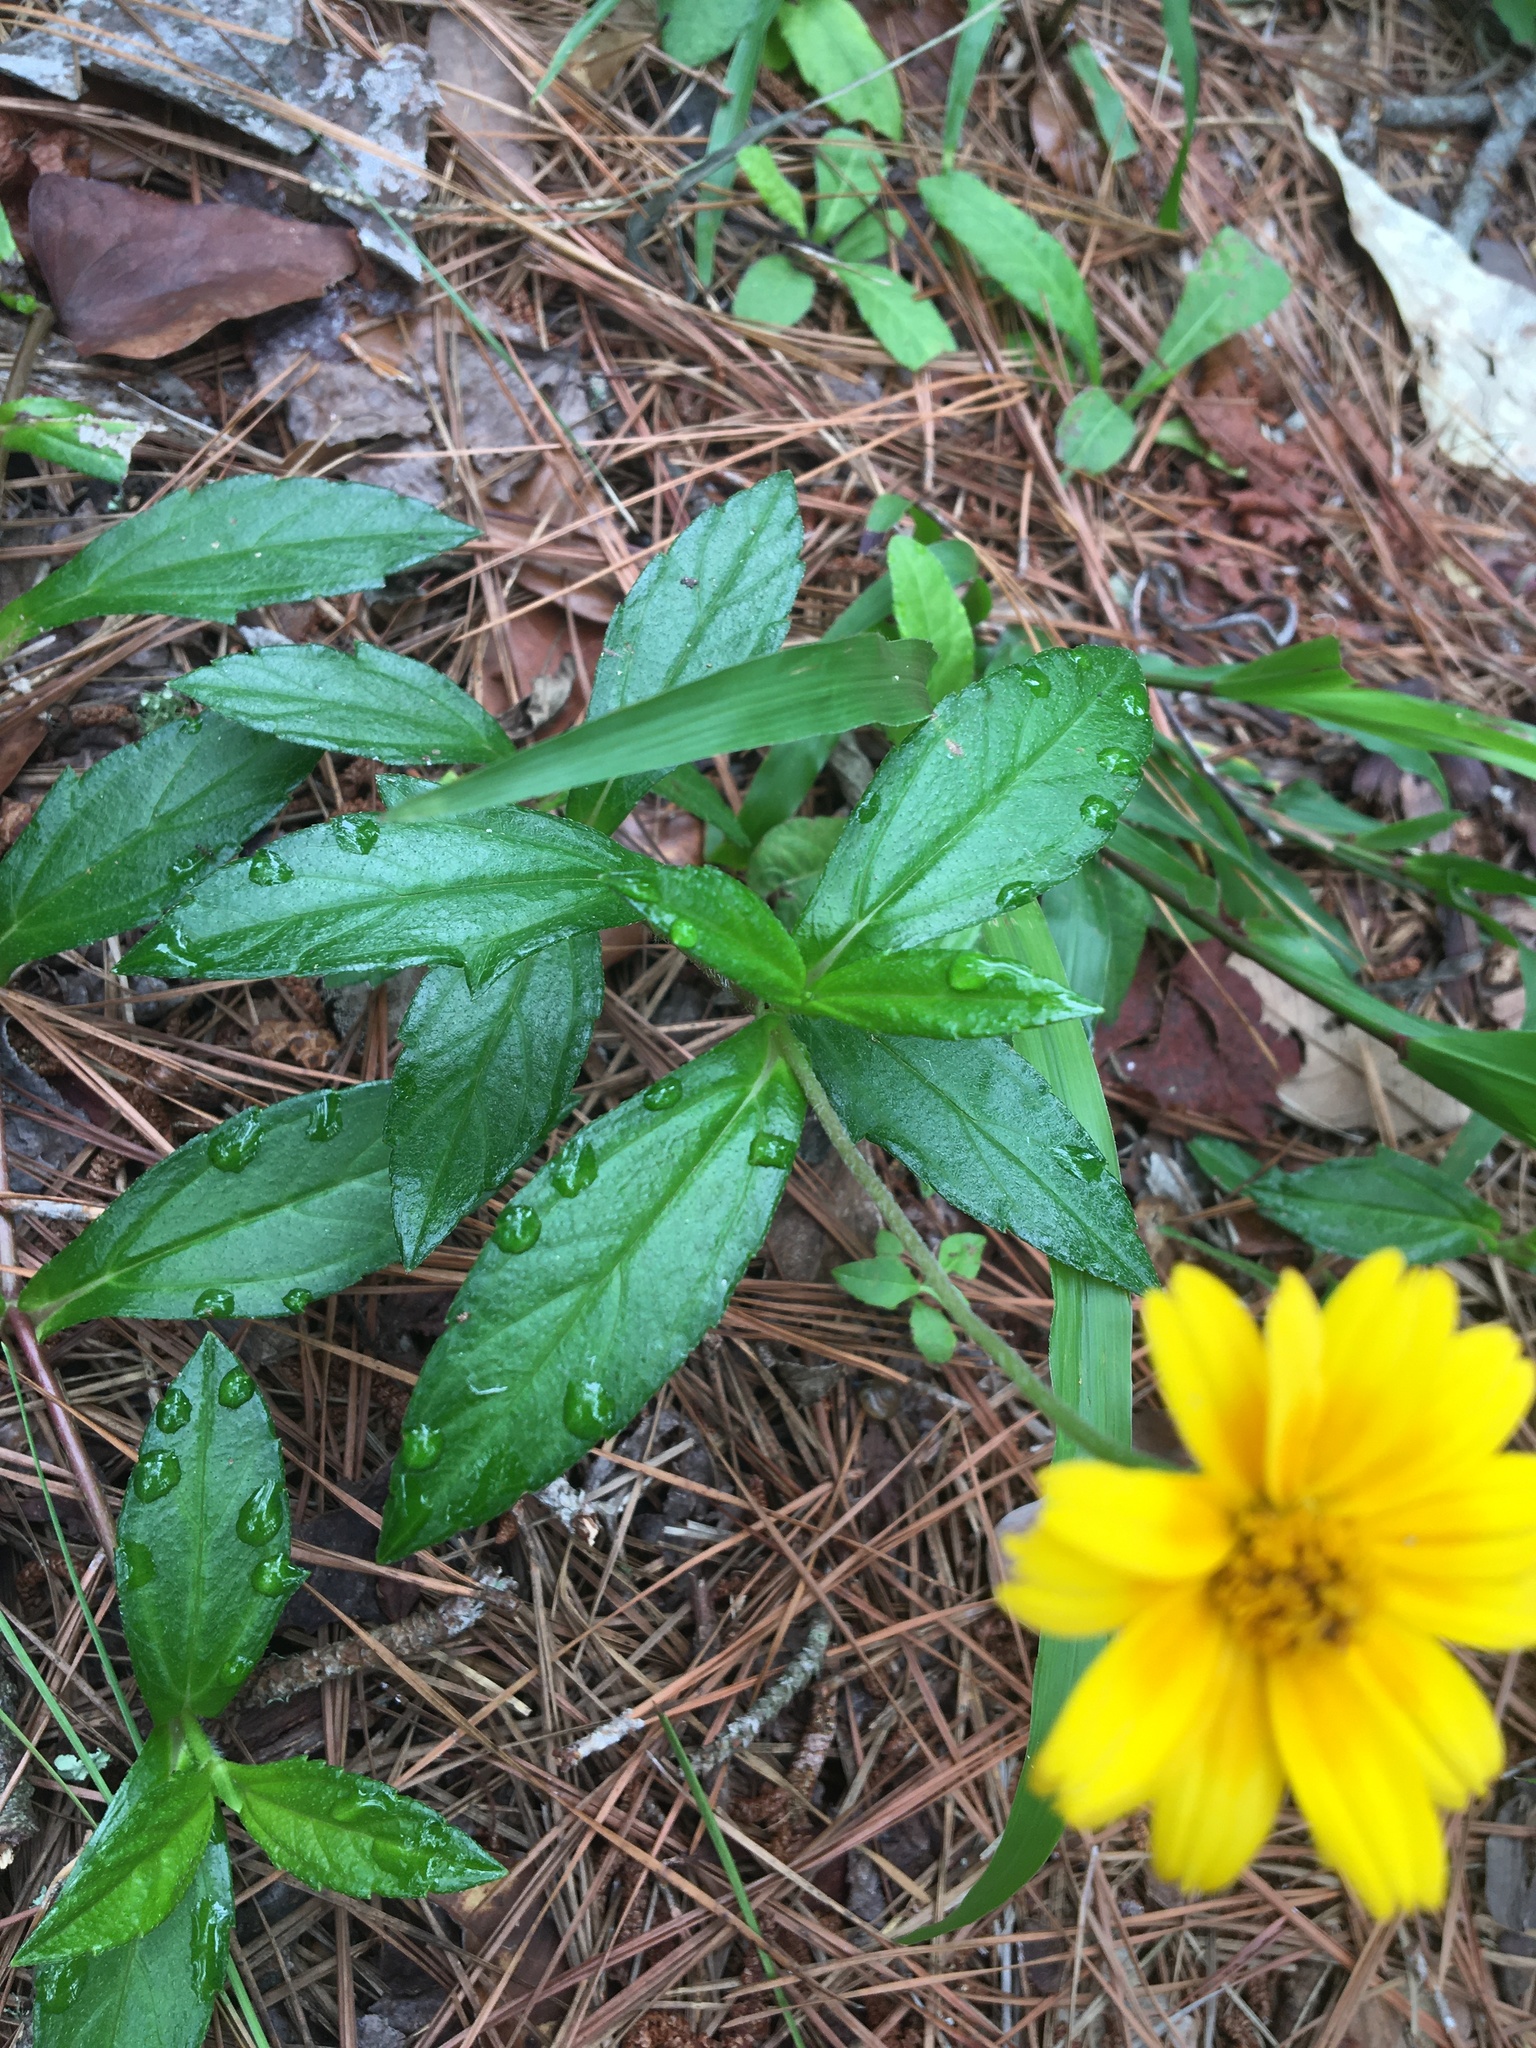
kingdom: Plantae
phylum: Tracheophyta
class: Magnoliopsida
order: Asterales
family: Asteraceae
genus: Sphagneticola
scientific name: Sphagneticola trilobata
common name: Bay biscayne creeping-oxeye
